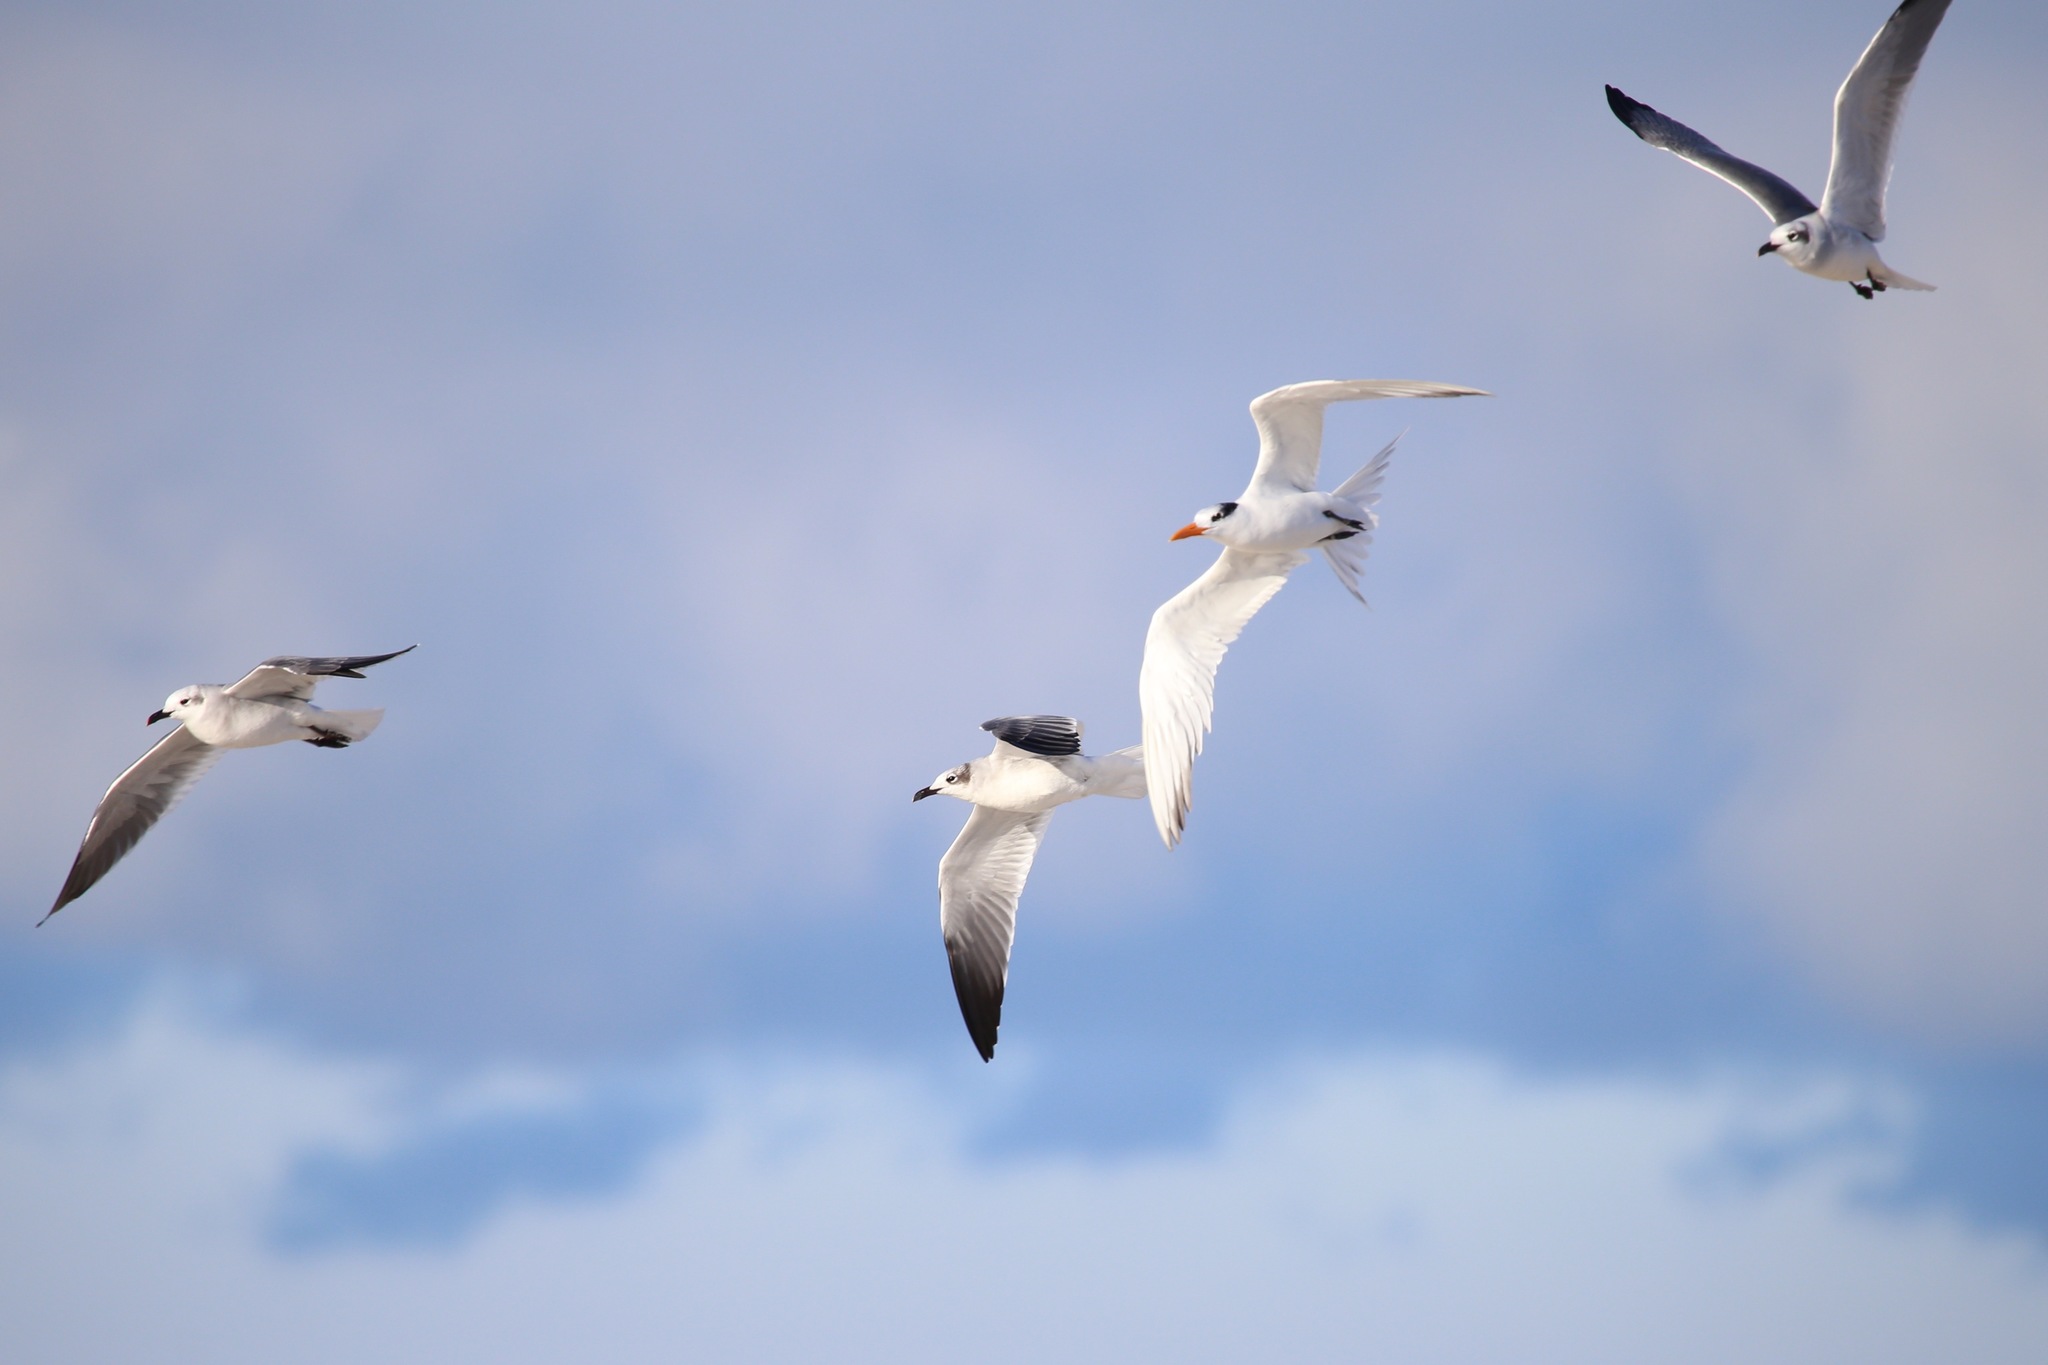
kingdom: Animalia
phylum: Chordata
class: Aves
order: Charadriiformes
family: Laridae
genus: Thalasseus
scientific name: Thalasseus maximus
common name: Royal tern
